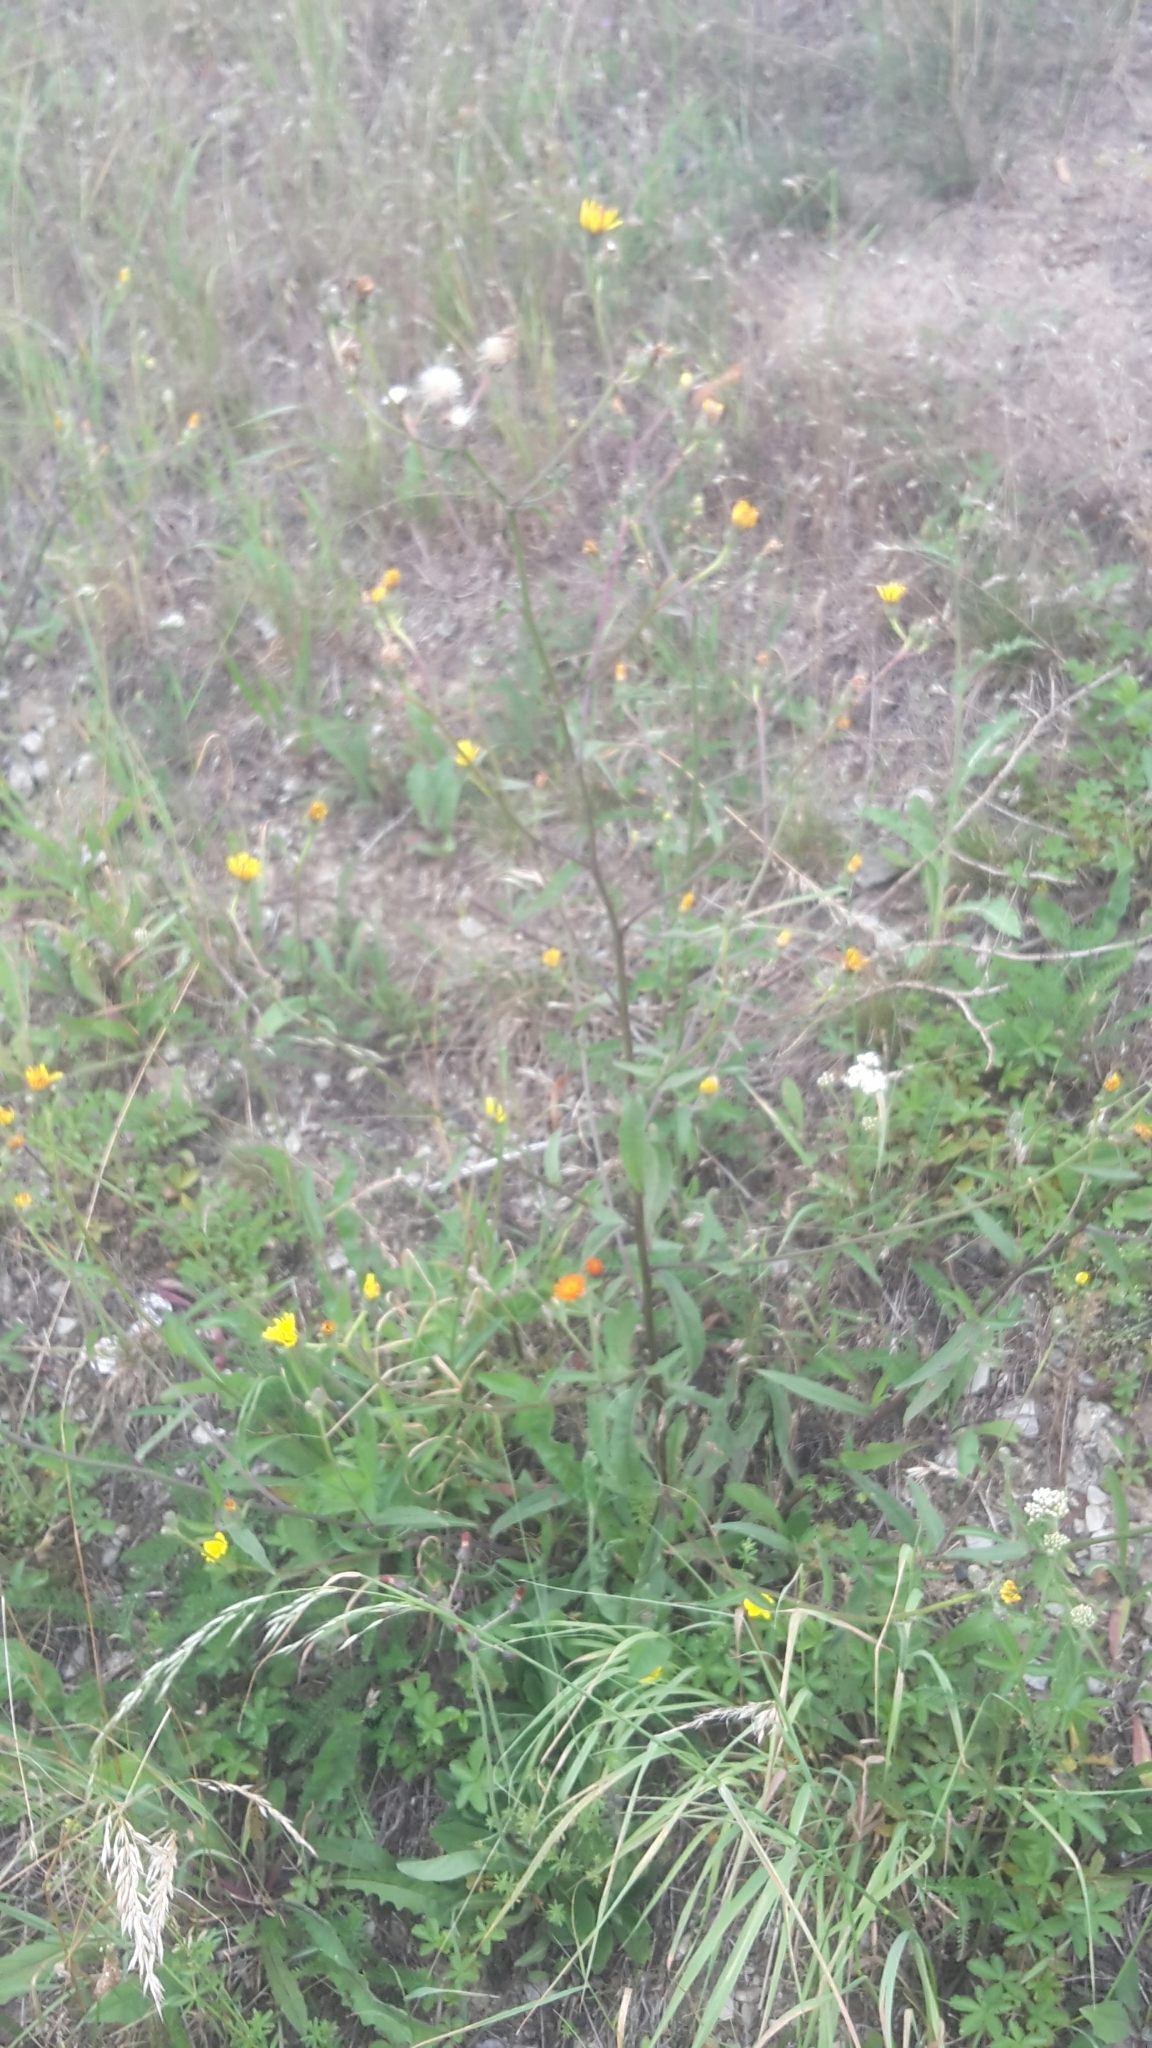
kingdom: Plantae
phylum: Tracheophyta
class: Magnoliopsida
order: Asterales
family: Asteraceae
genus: Picris
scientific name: Picris hieracioides
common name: Hawkweed oxtongue
